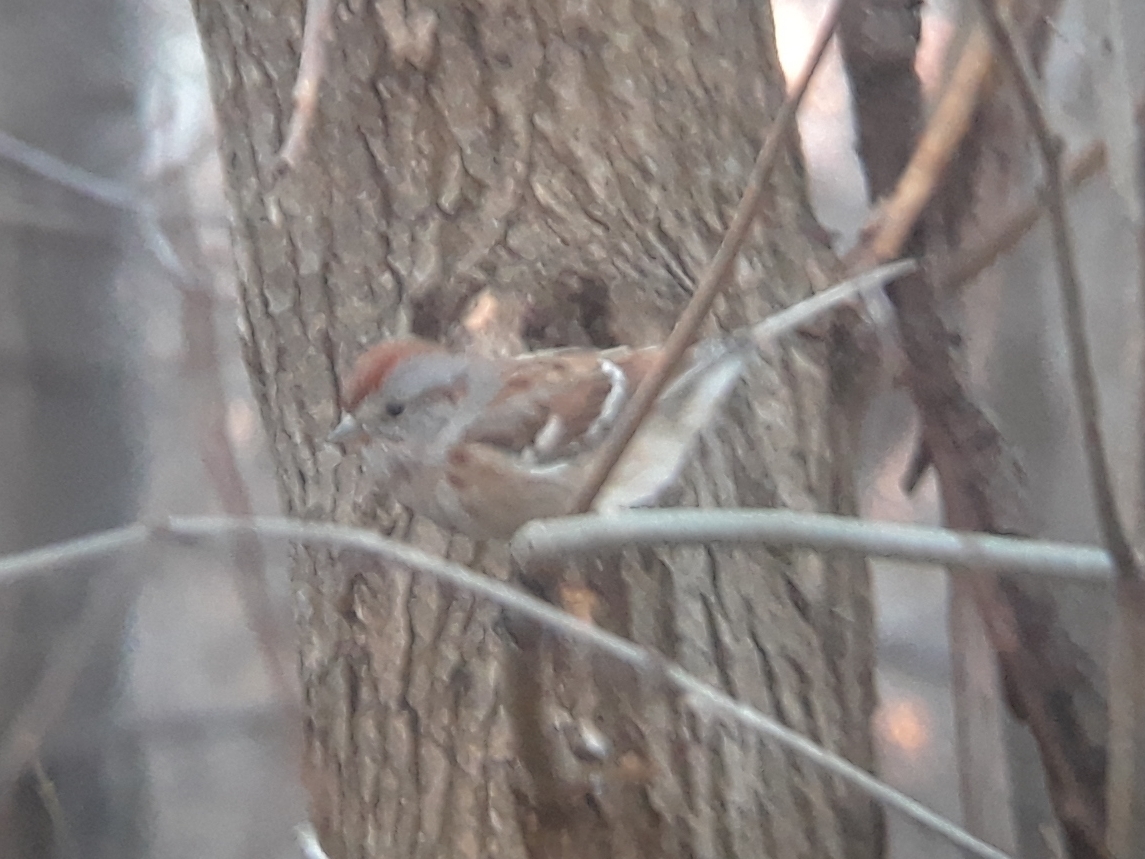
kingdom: Animalia
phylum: Chordata
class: Aves
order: Passeriformes
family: Passerellidae
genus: Spizelloides
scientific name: Spizelloides arborea
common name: American tree sparrow
